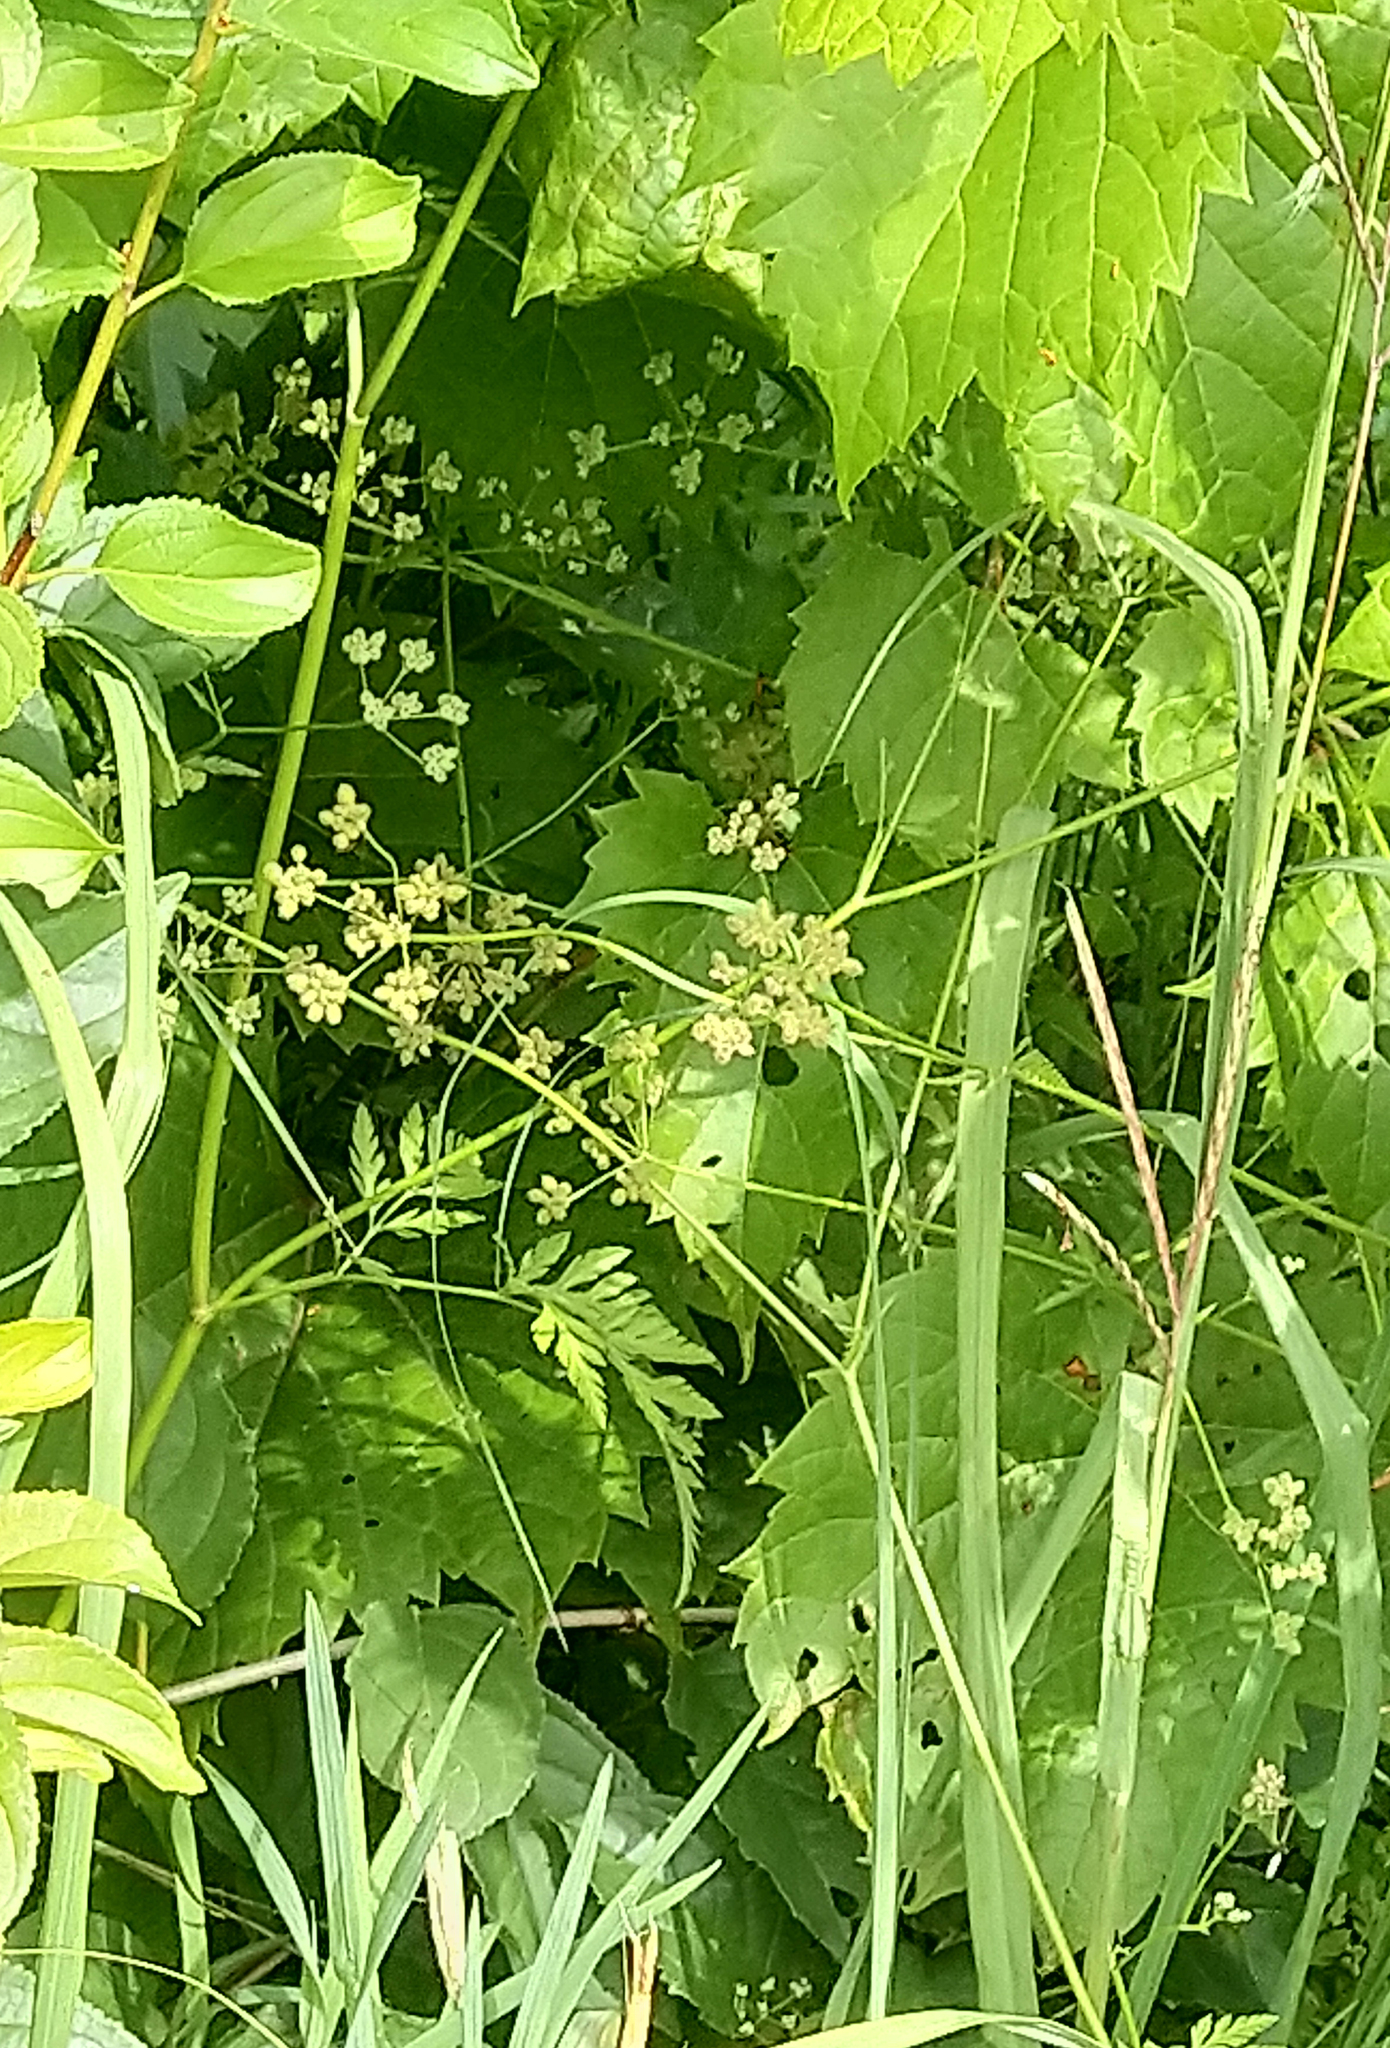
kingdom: Plantae
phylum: Tracheophyta
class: Magnoliopsida
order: Apiales
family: Apiaceae
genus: Torilis
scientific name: Torilis japonica
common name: Upright hedge-parsley
